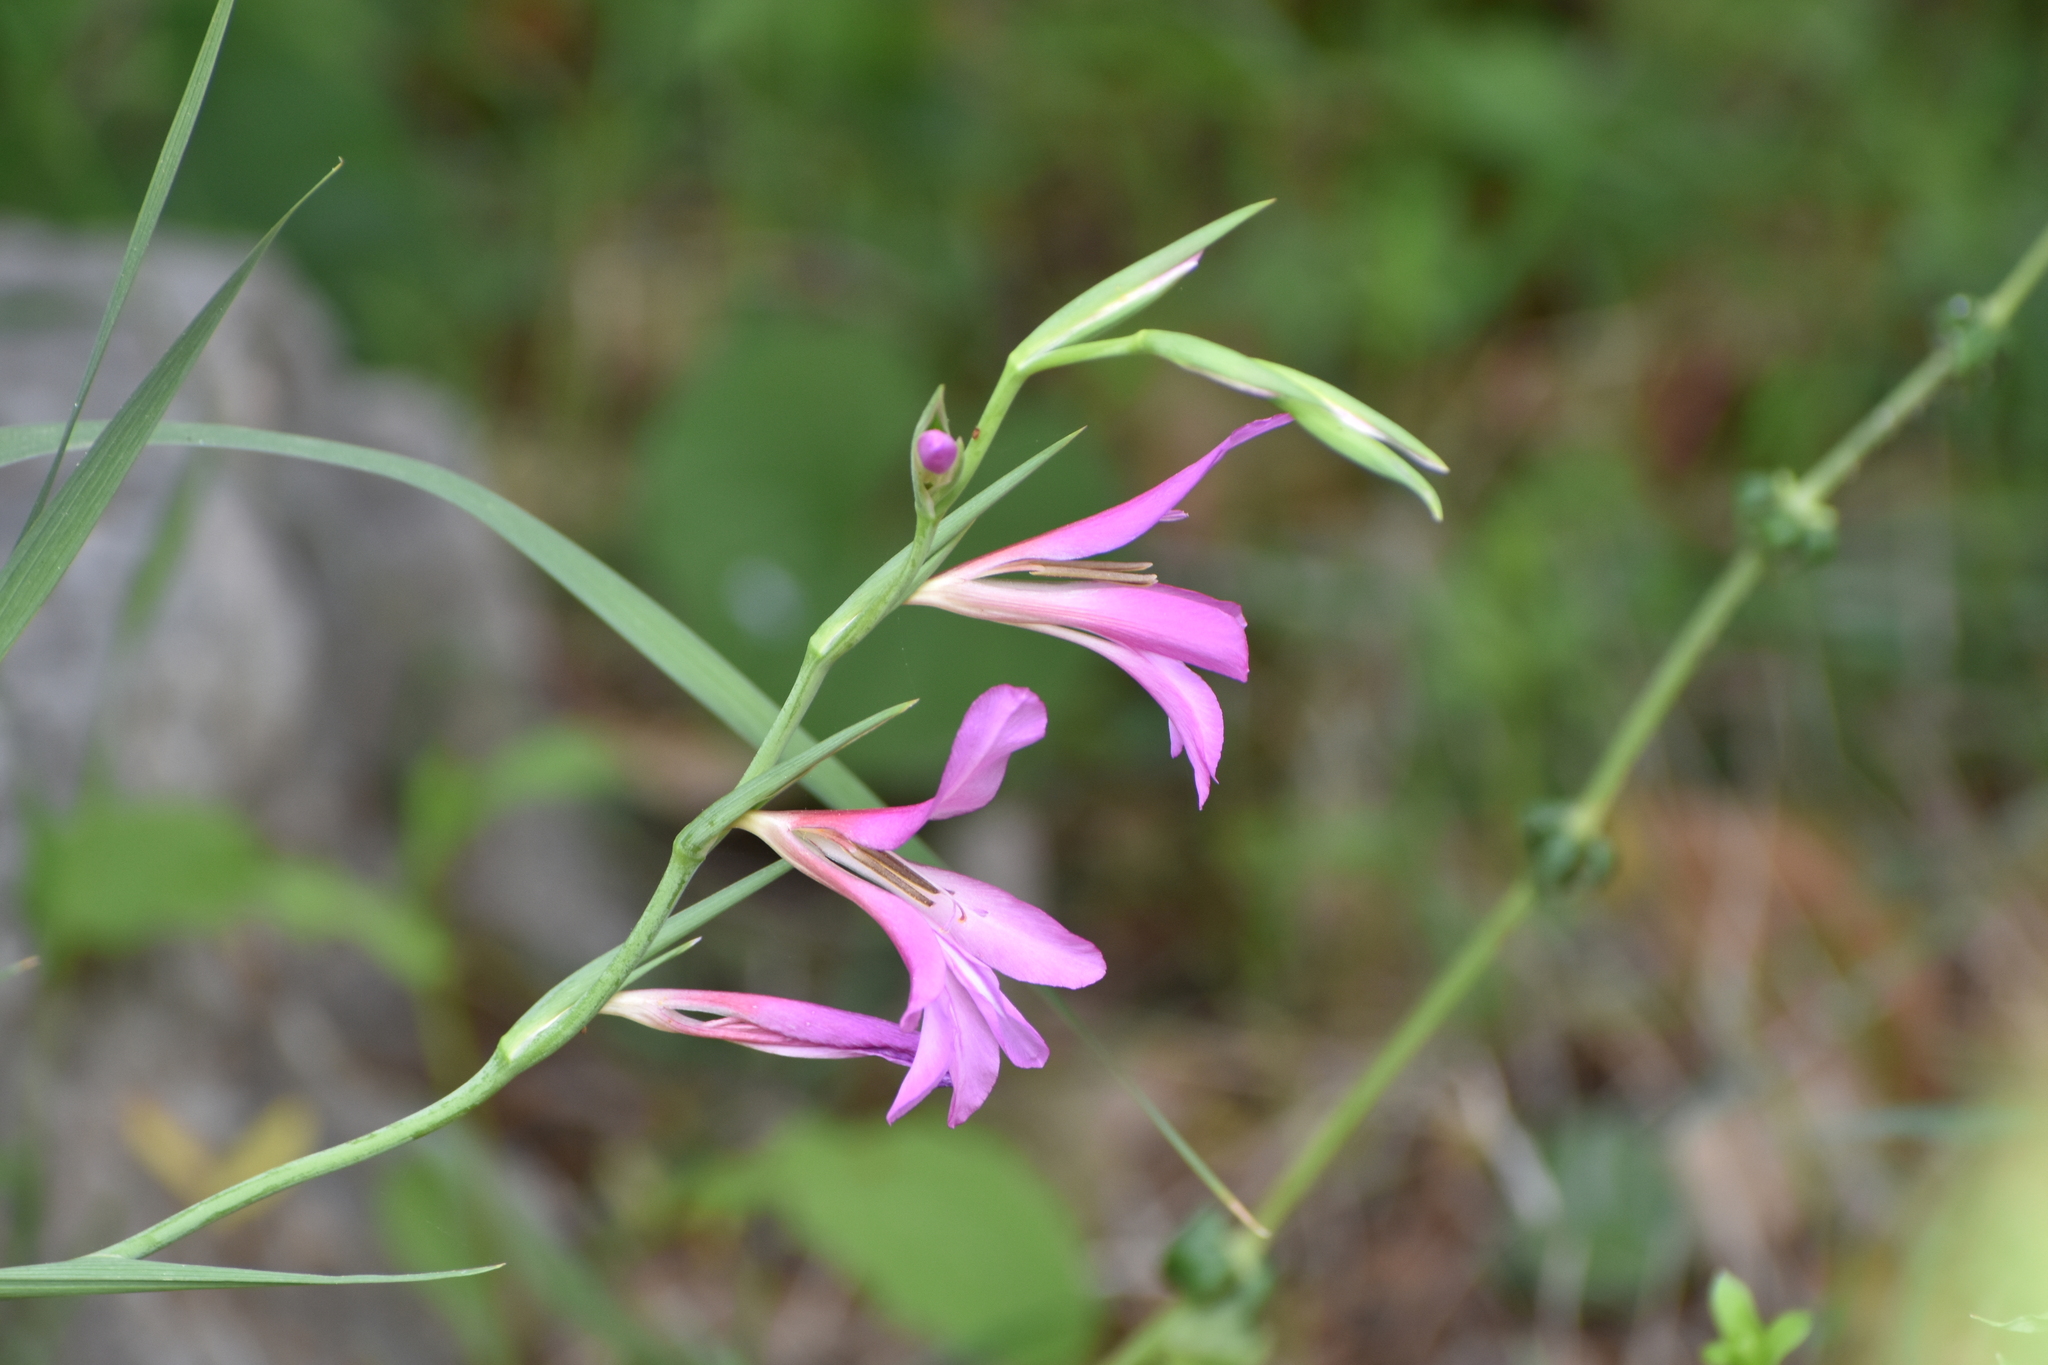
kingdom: Plantae
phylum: Tracheophyta
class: Liliopsida
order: Asparagales
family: Iridaceae
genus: Gladiolus
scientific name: Gladiolus italicus
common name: Field gladiolus
